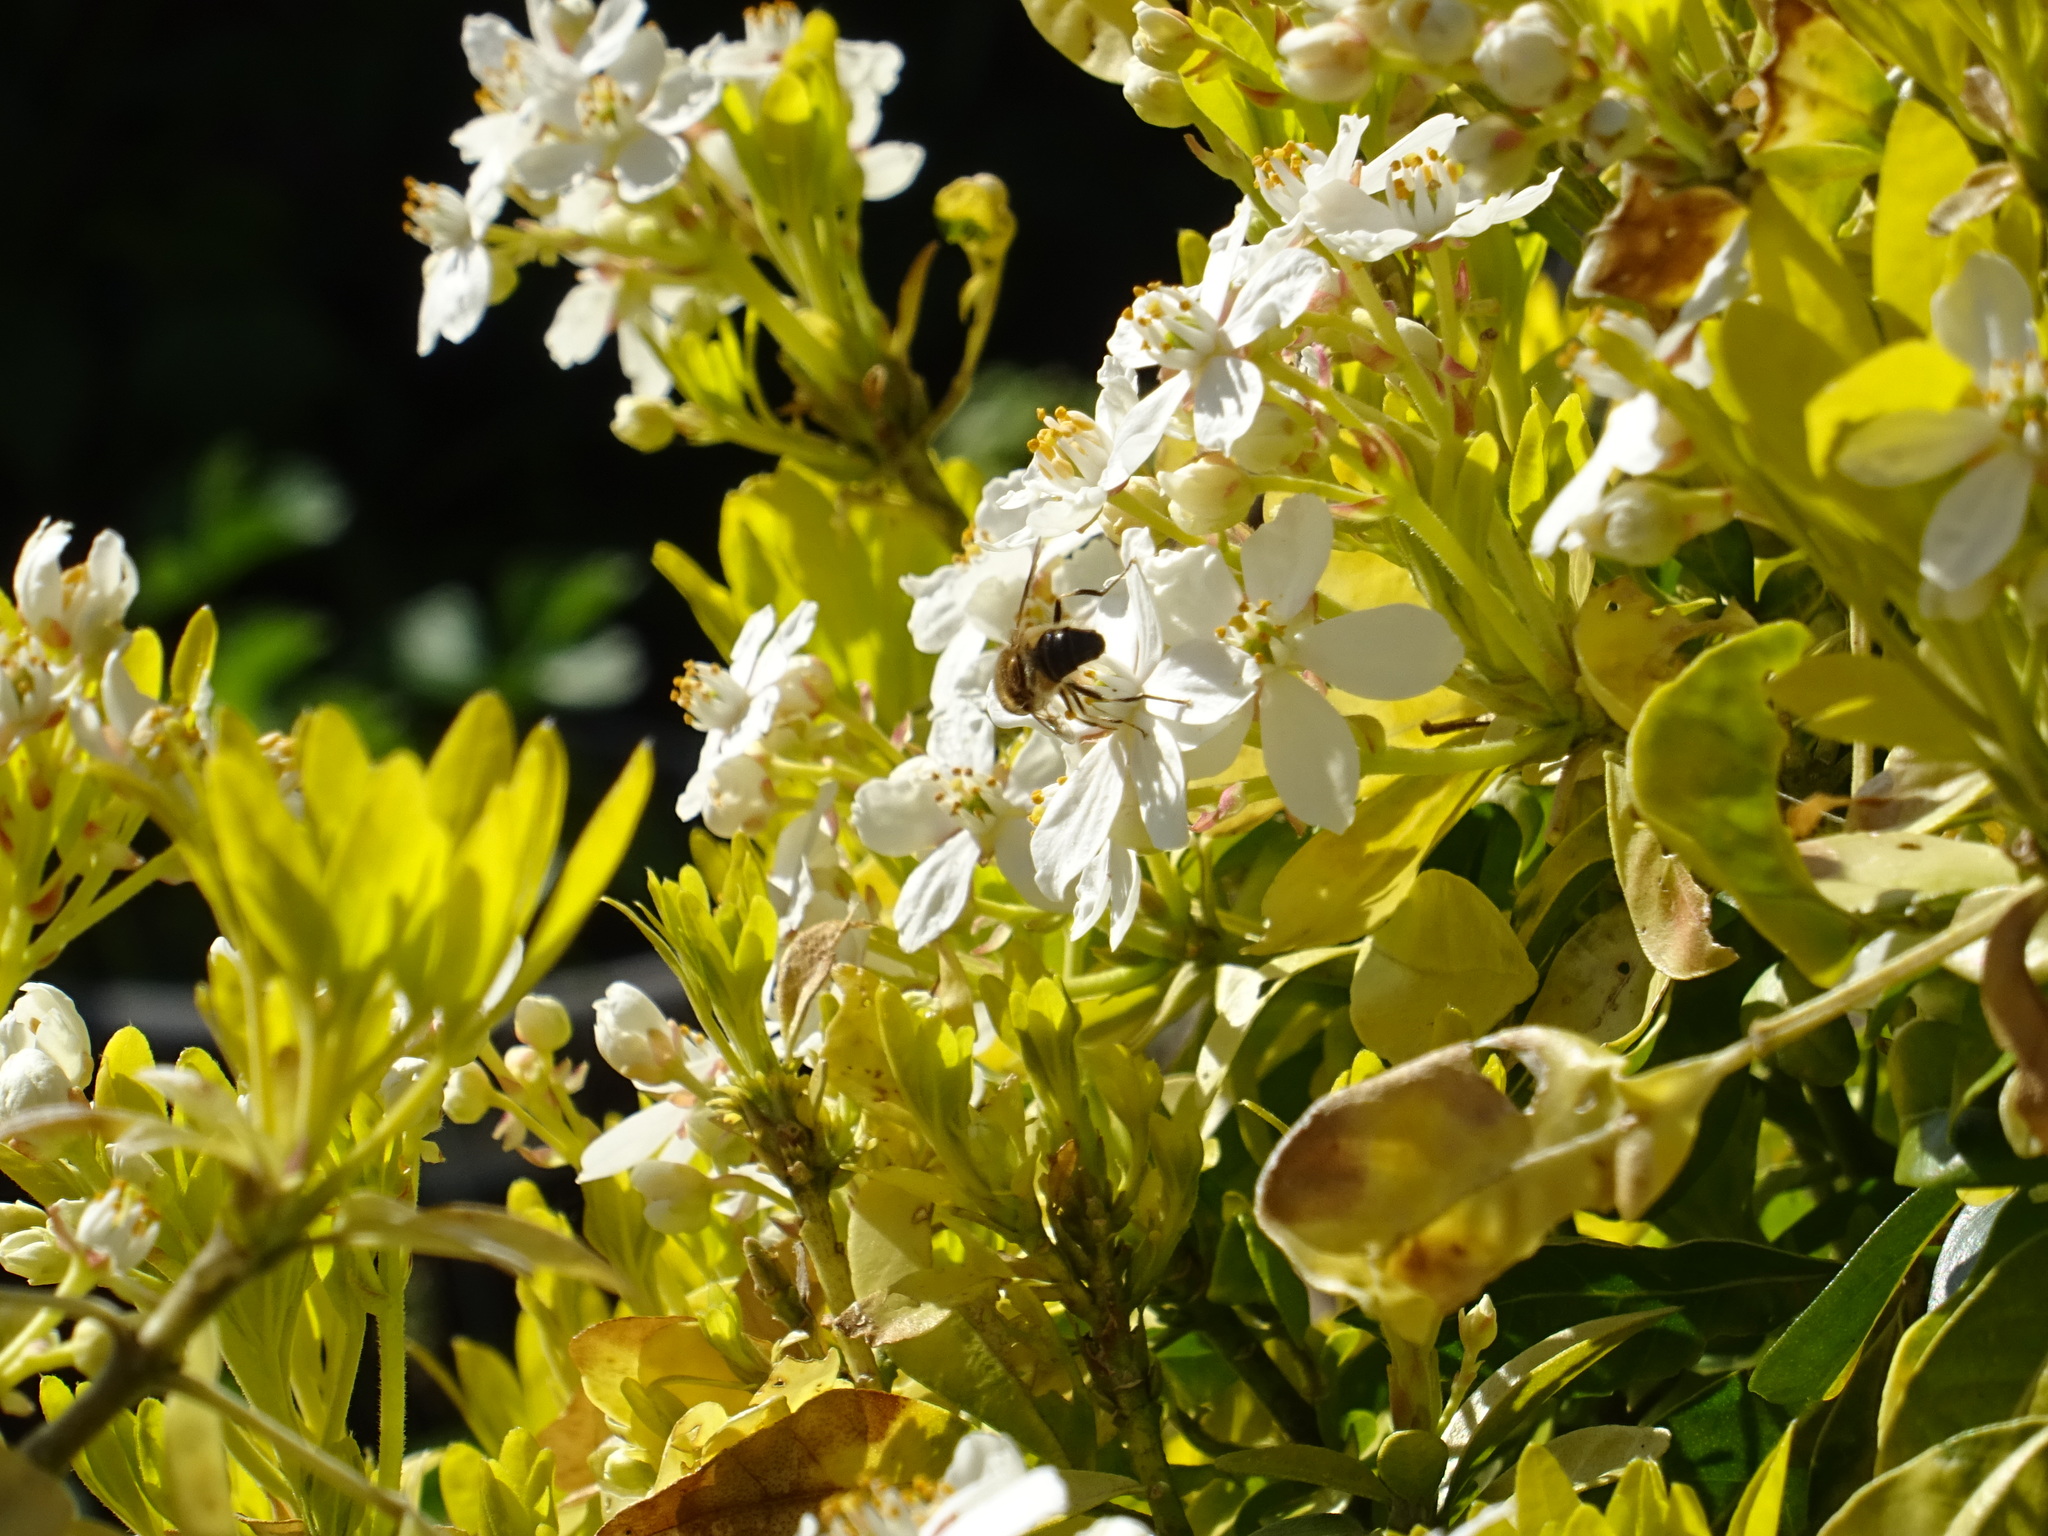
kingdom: Animalia
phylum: Arthropoda
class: Insecta
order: Diptera
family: Syrphidae
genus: Eristalis
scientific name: Eristalis pertinax
